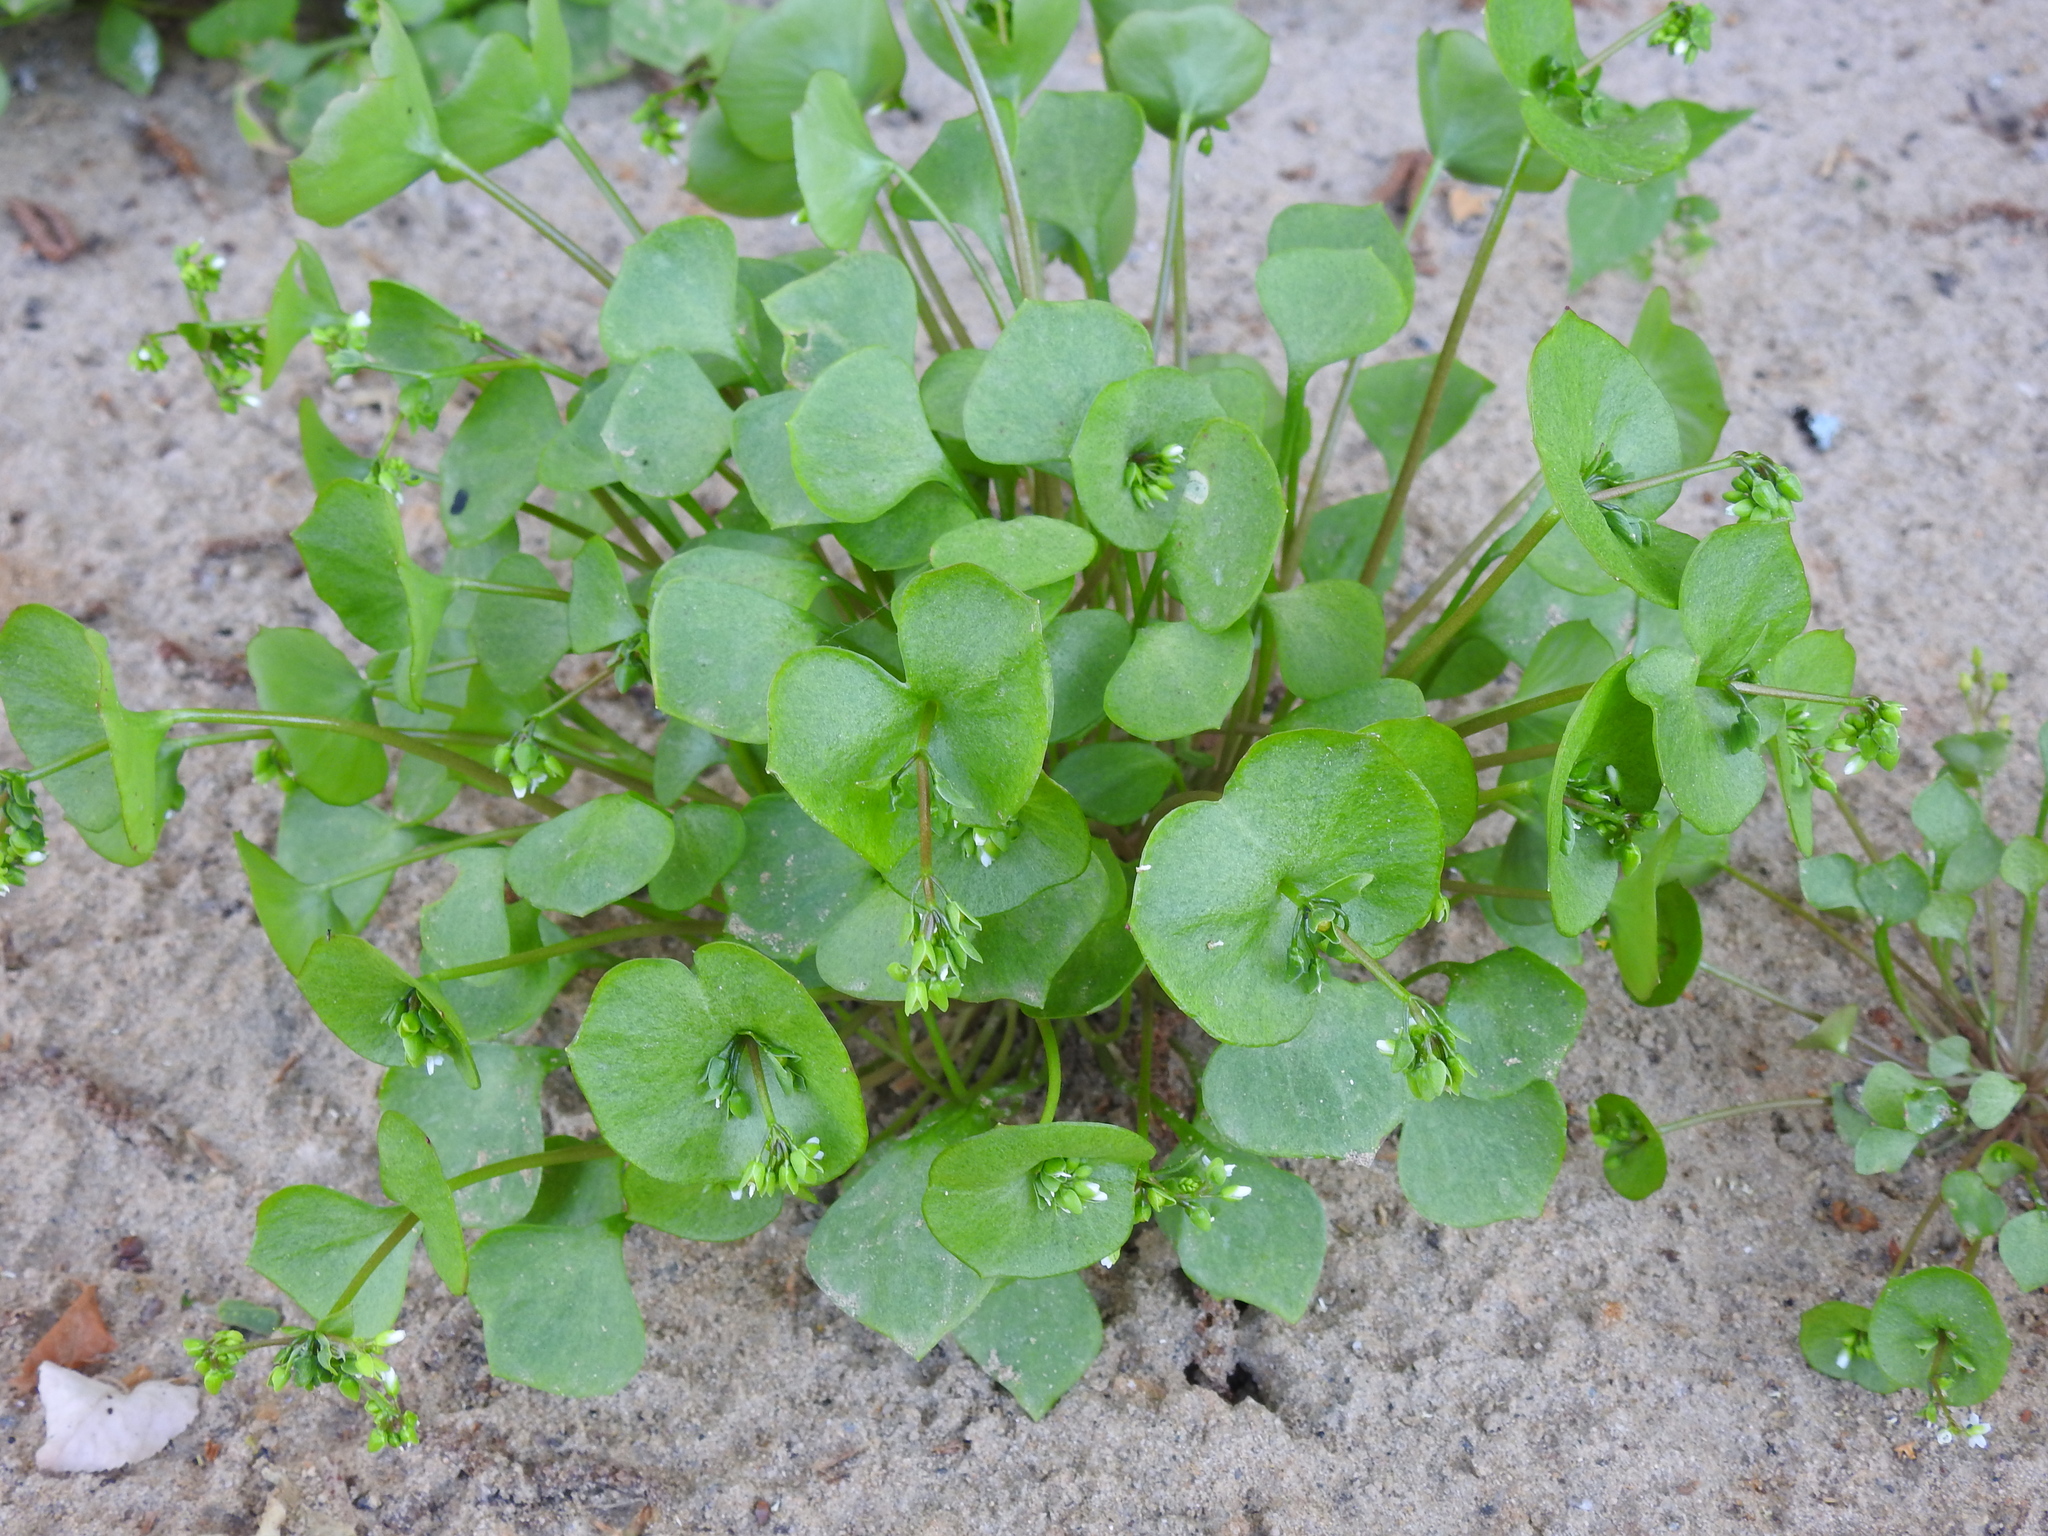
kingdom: Plantae
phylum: Tracheophyta
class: Magnoliopsida
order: Caryophyllales
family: Montiaceae
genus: Claytonia
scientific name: Claytonia perfoliata
